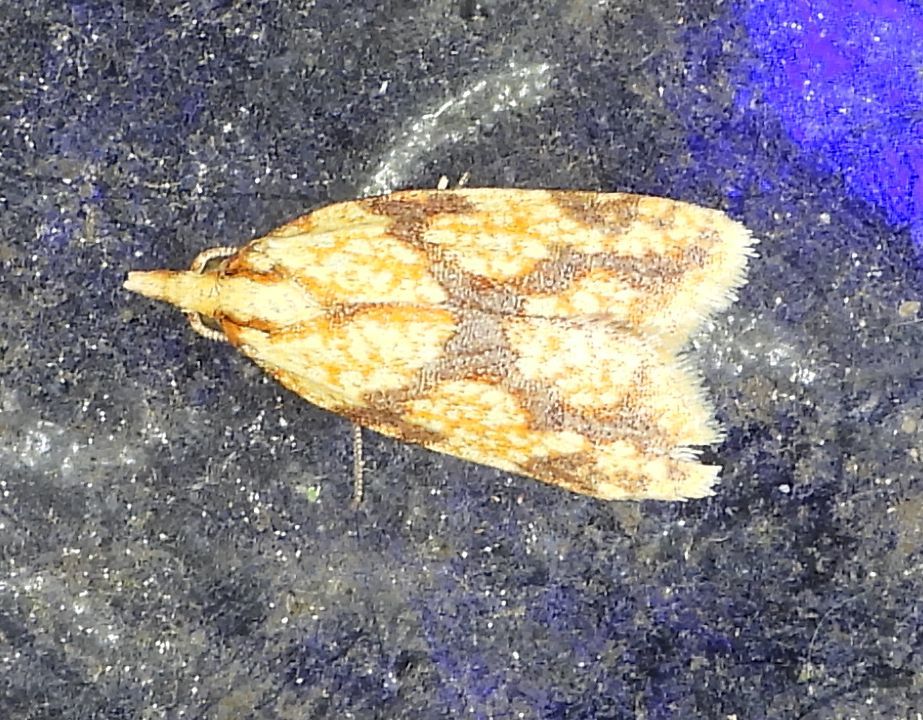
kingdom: Animalia
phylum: Arthropoda
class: Insecta
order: Lepidoptera
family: Tortricidae
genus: Sparganothis
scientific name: Sparganothis sulfureana
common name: Sparganothis fruitworm moth
